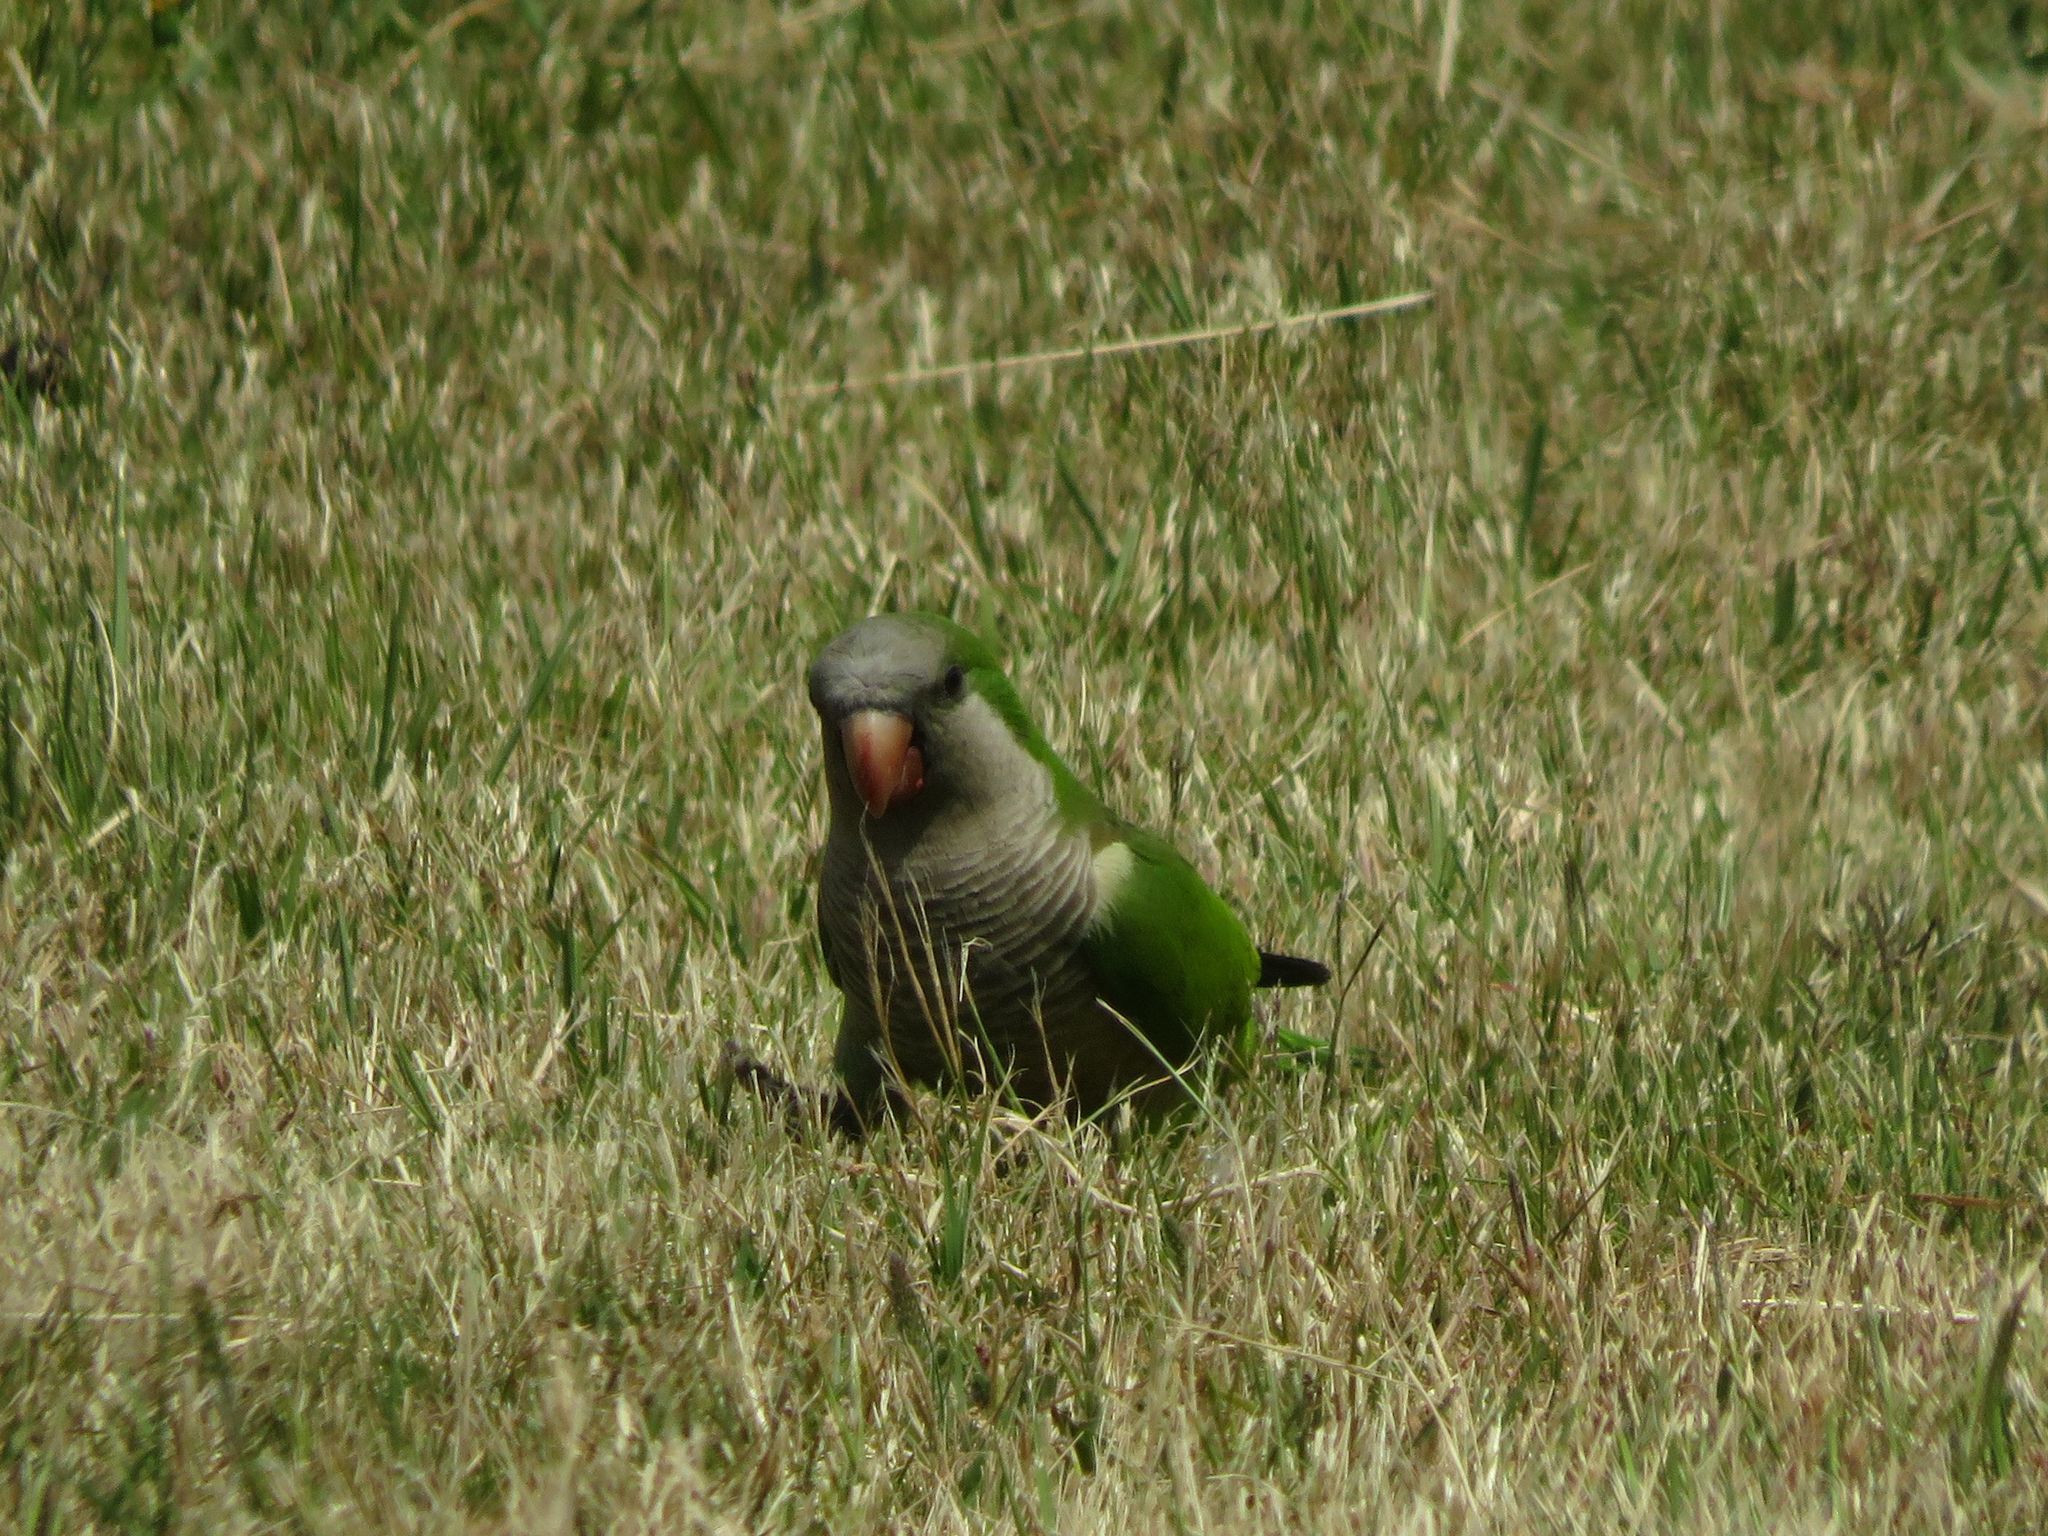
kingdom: Animalia
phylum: Chordata
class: Aves
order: Psittaciformes
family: Psittacidae
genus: Myiopsitta
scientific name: Myiopsitta monachus
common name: Monk parakeet
